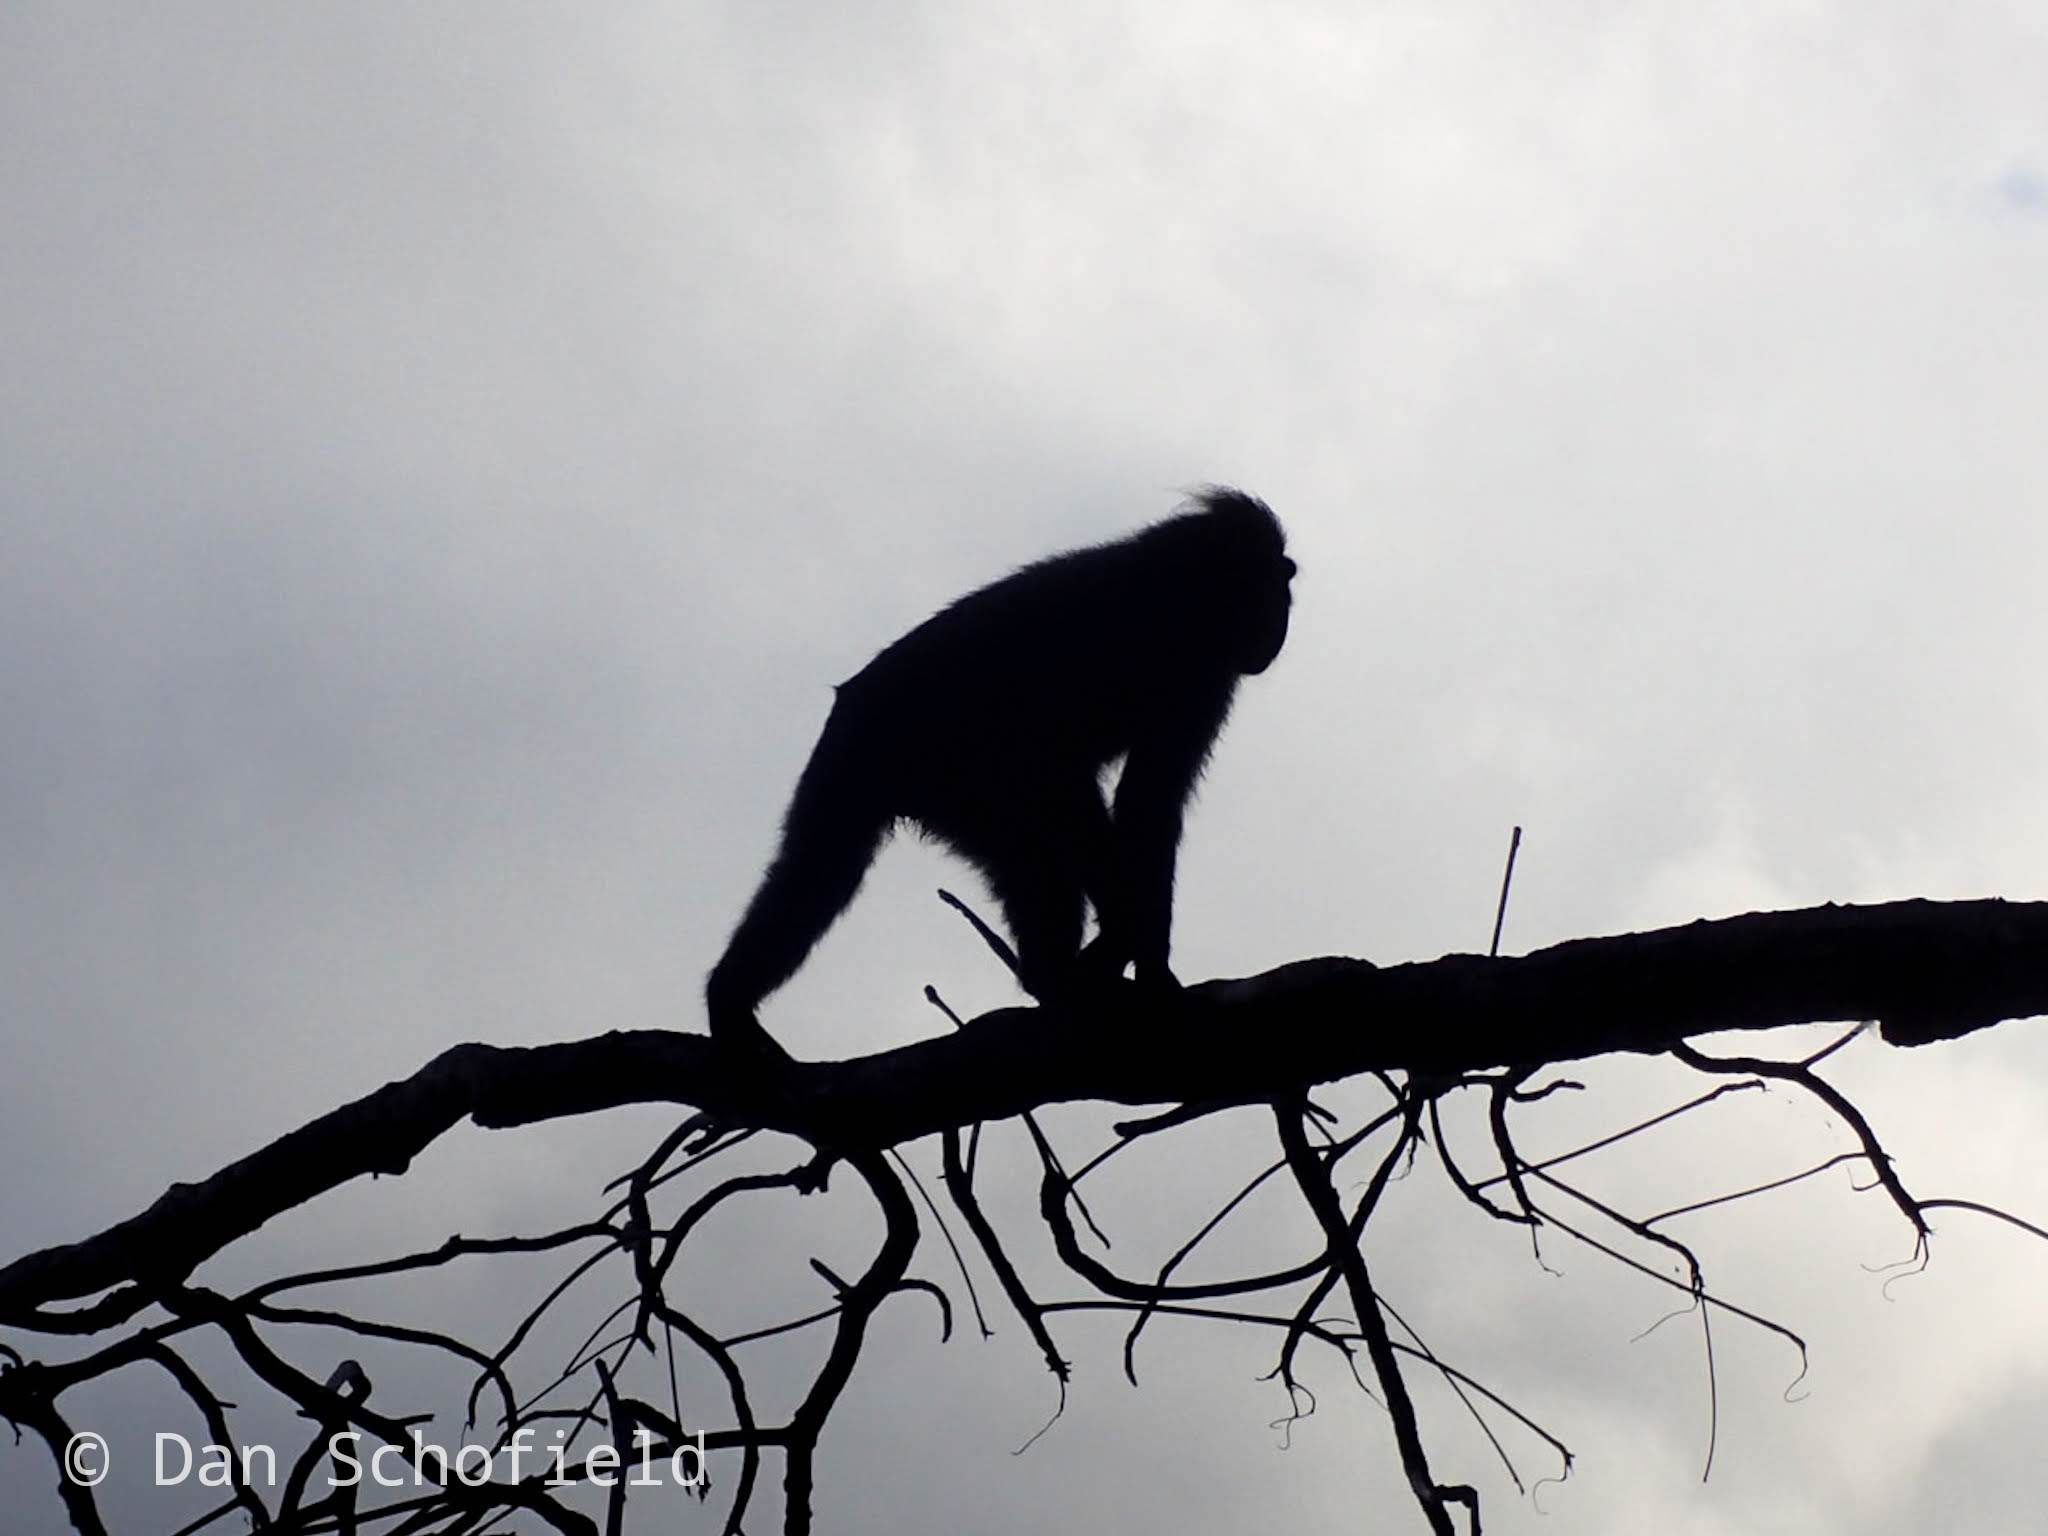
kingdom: Animalia
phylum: Chordata
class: Mammalia
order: Primates
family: Cercopithecidae
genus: Macaca
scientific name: Macaca nigra
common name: Celebes crested macaque
